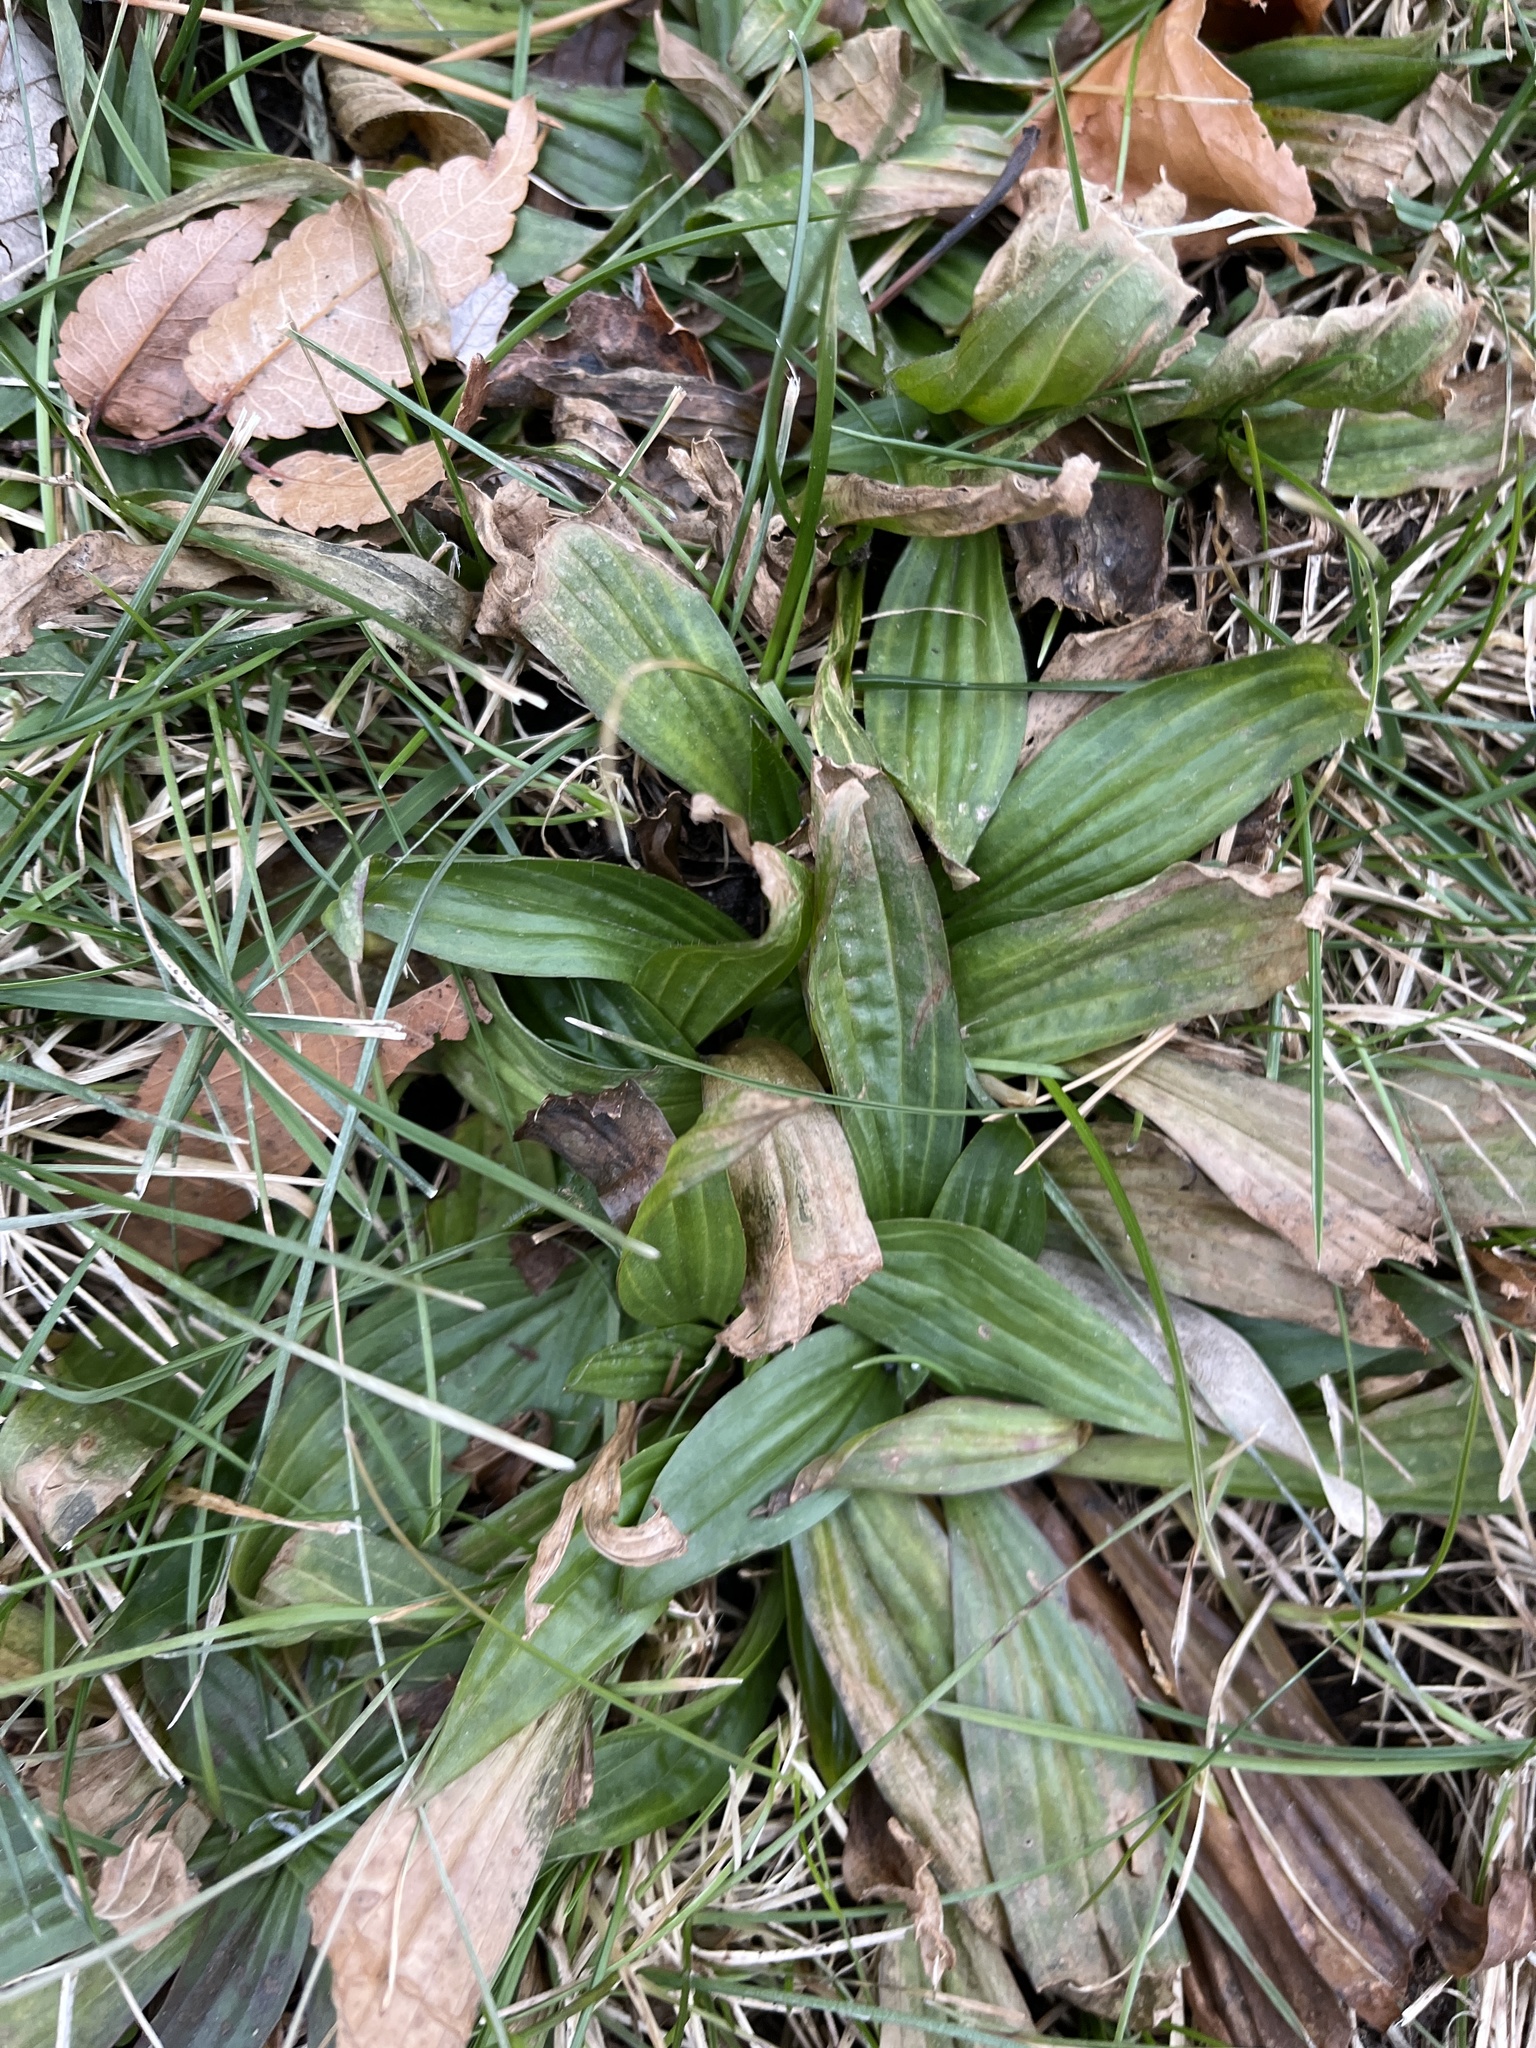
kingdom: Plantae
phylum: Tracheophyta
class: Magnoliopsida
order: Lamiales
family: Plantaginaceae
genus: Plantago
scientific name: Plantago lanceolata
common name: Ribwort plantain
